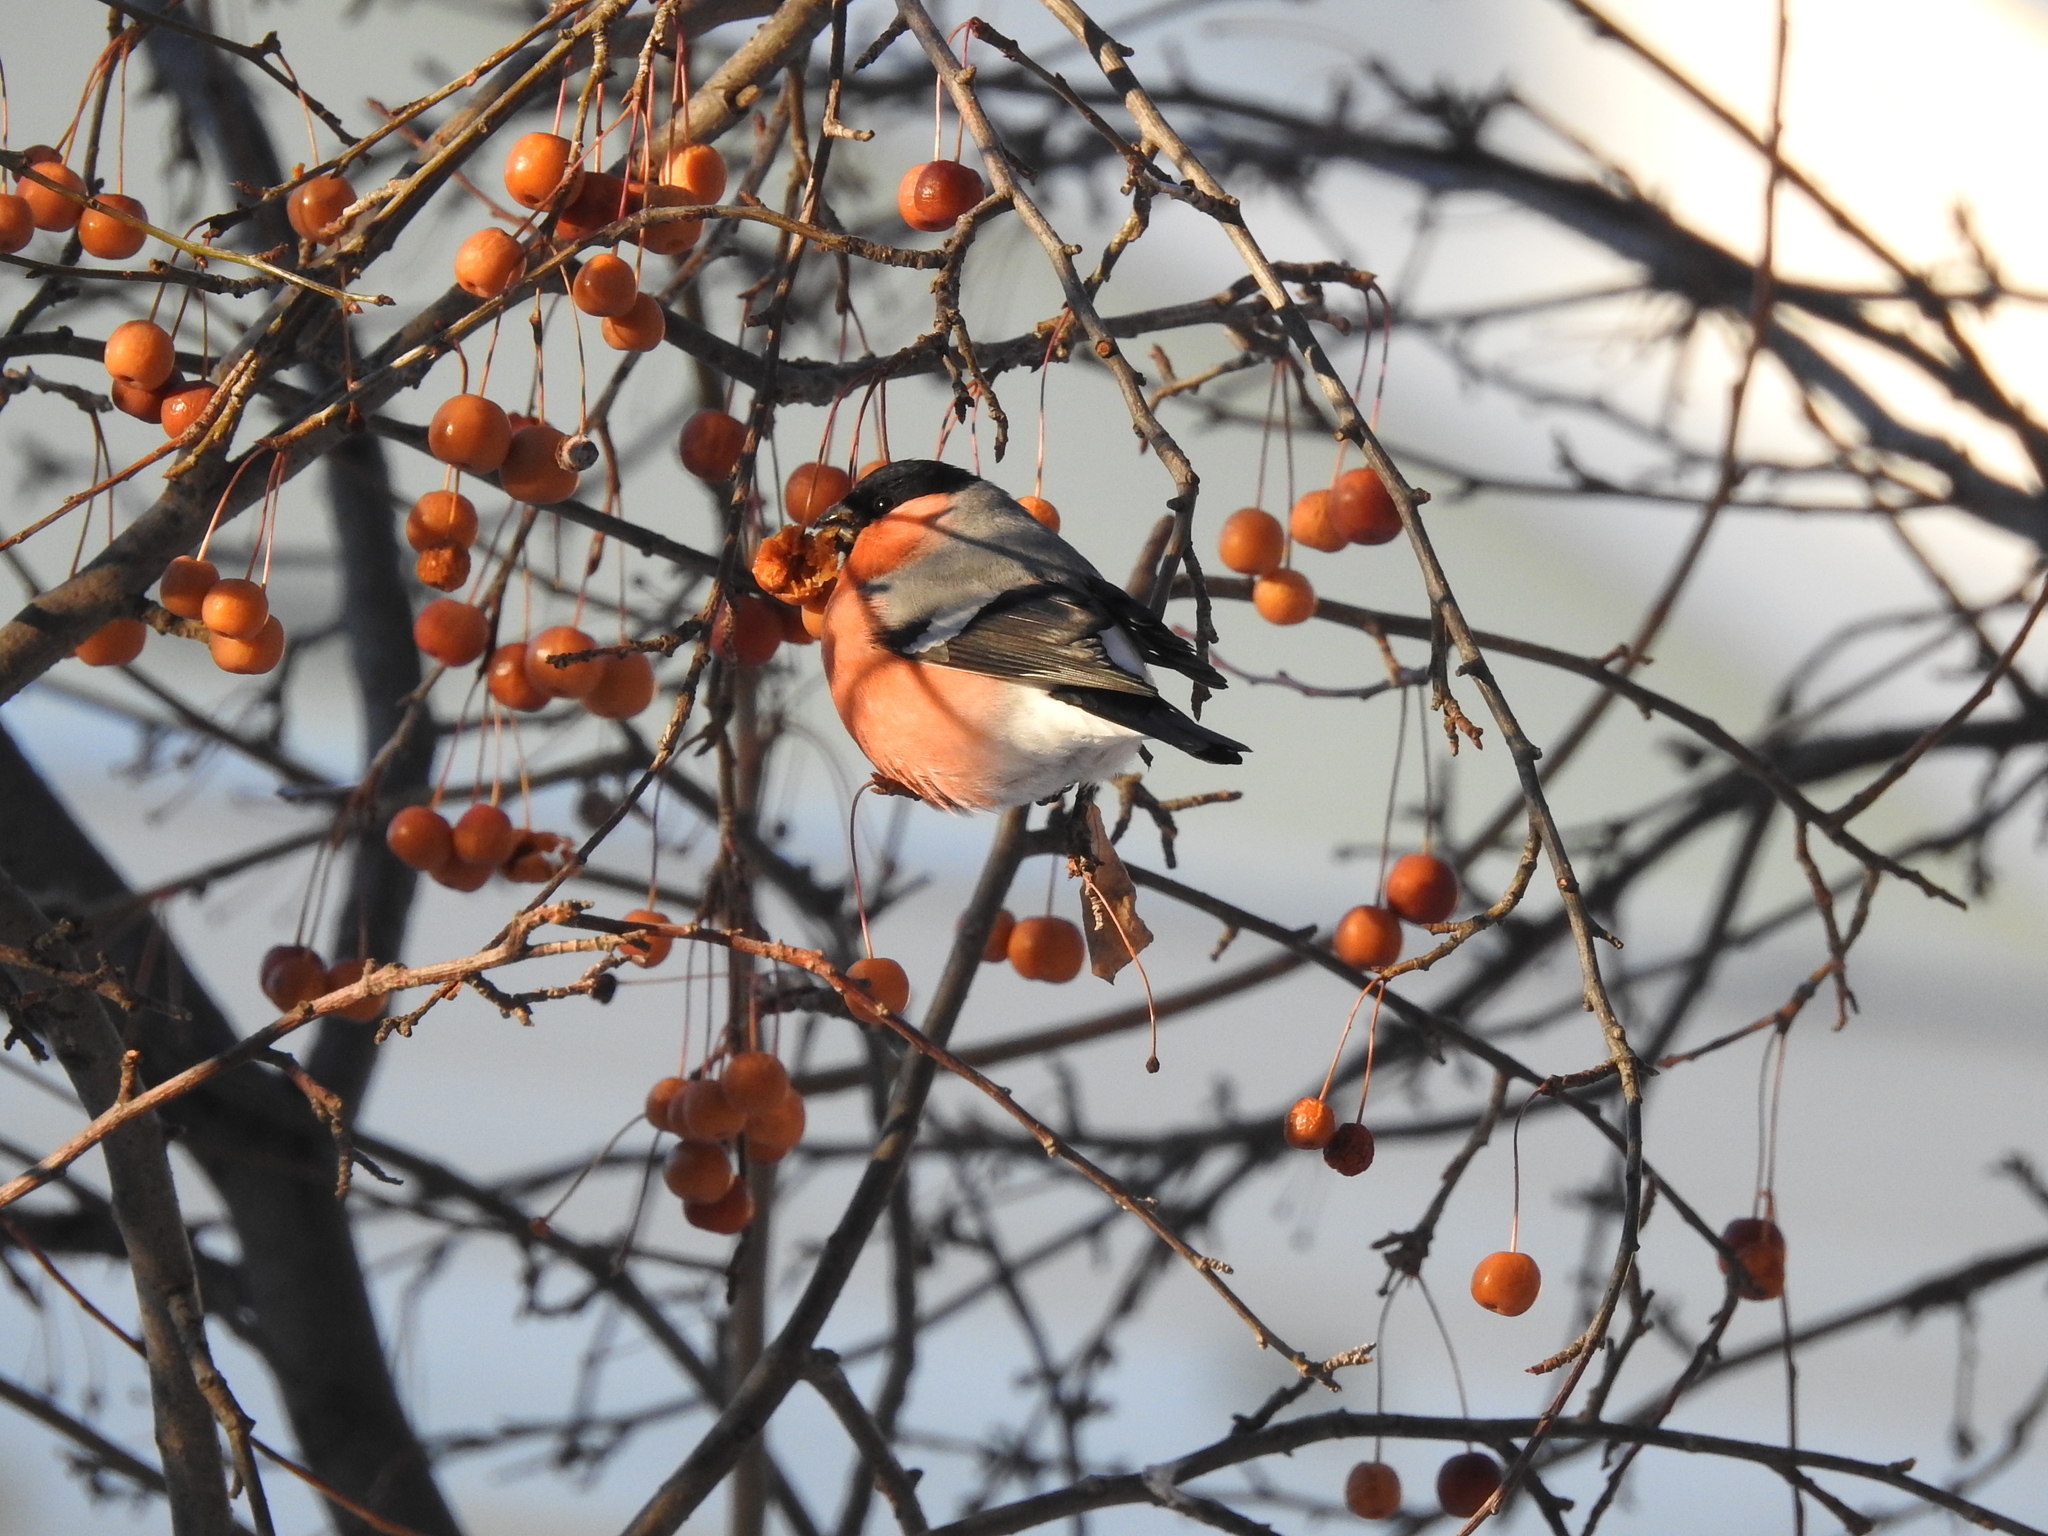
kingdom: Animalia
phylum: Chordata
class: Aves
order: Passeriformes
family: Fringillidae
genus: Pyrrhula
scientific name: Pyrrhula pyrrhula
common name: Eurasian bullfinch
